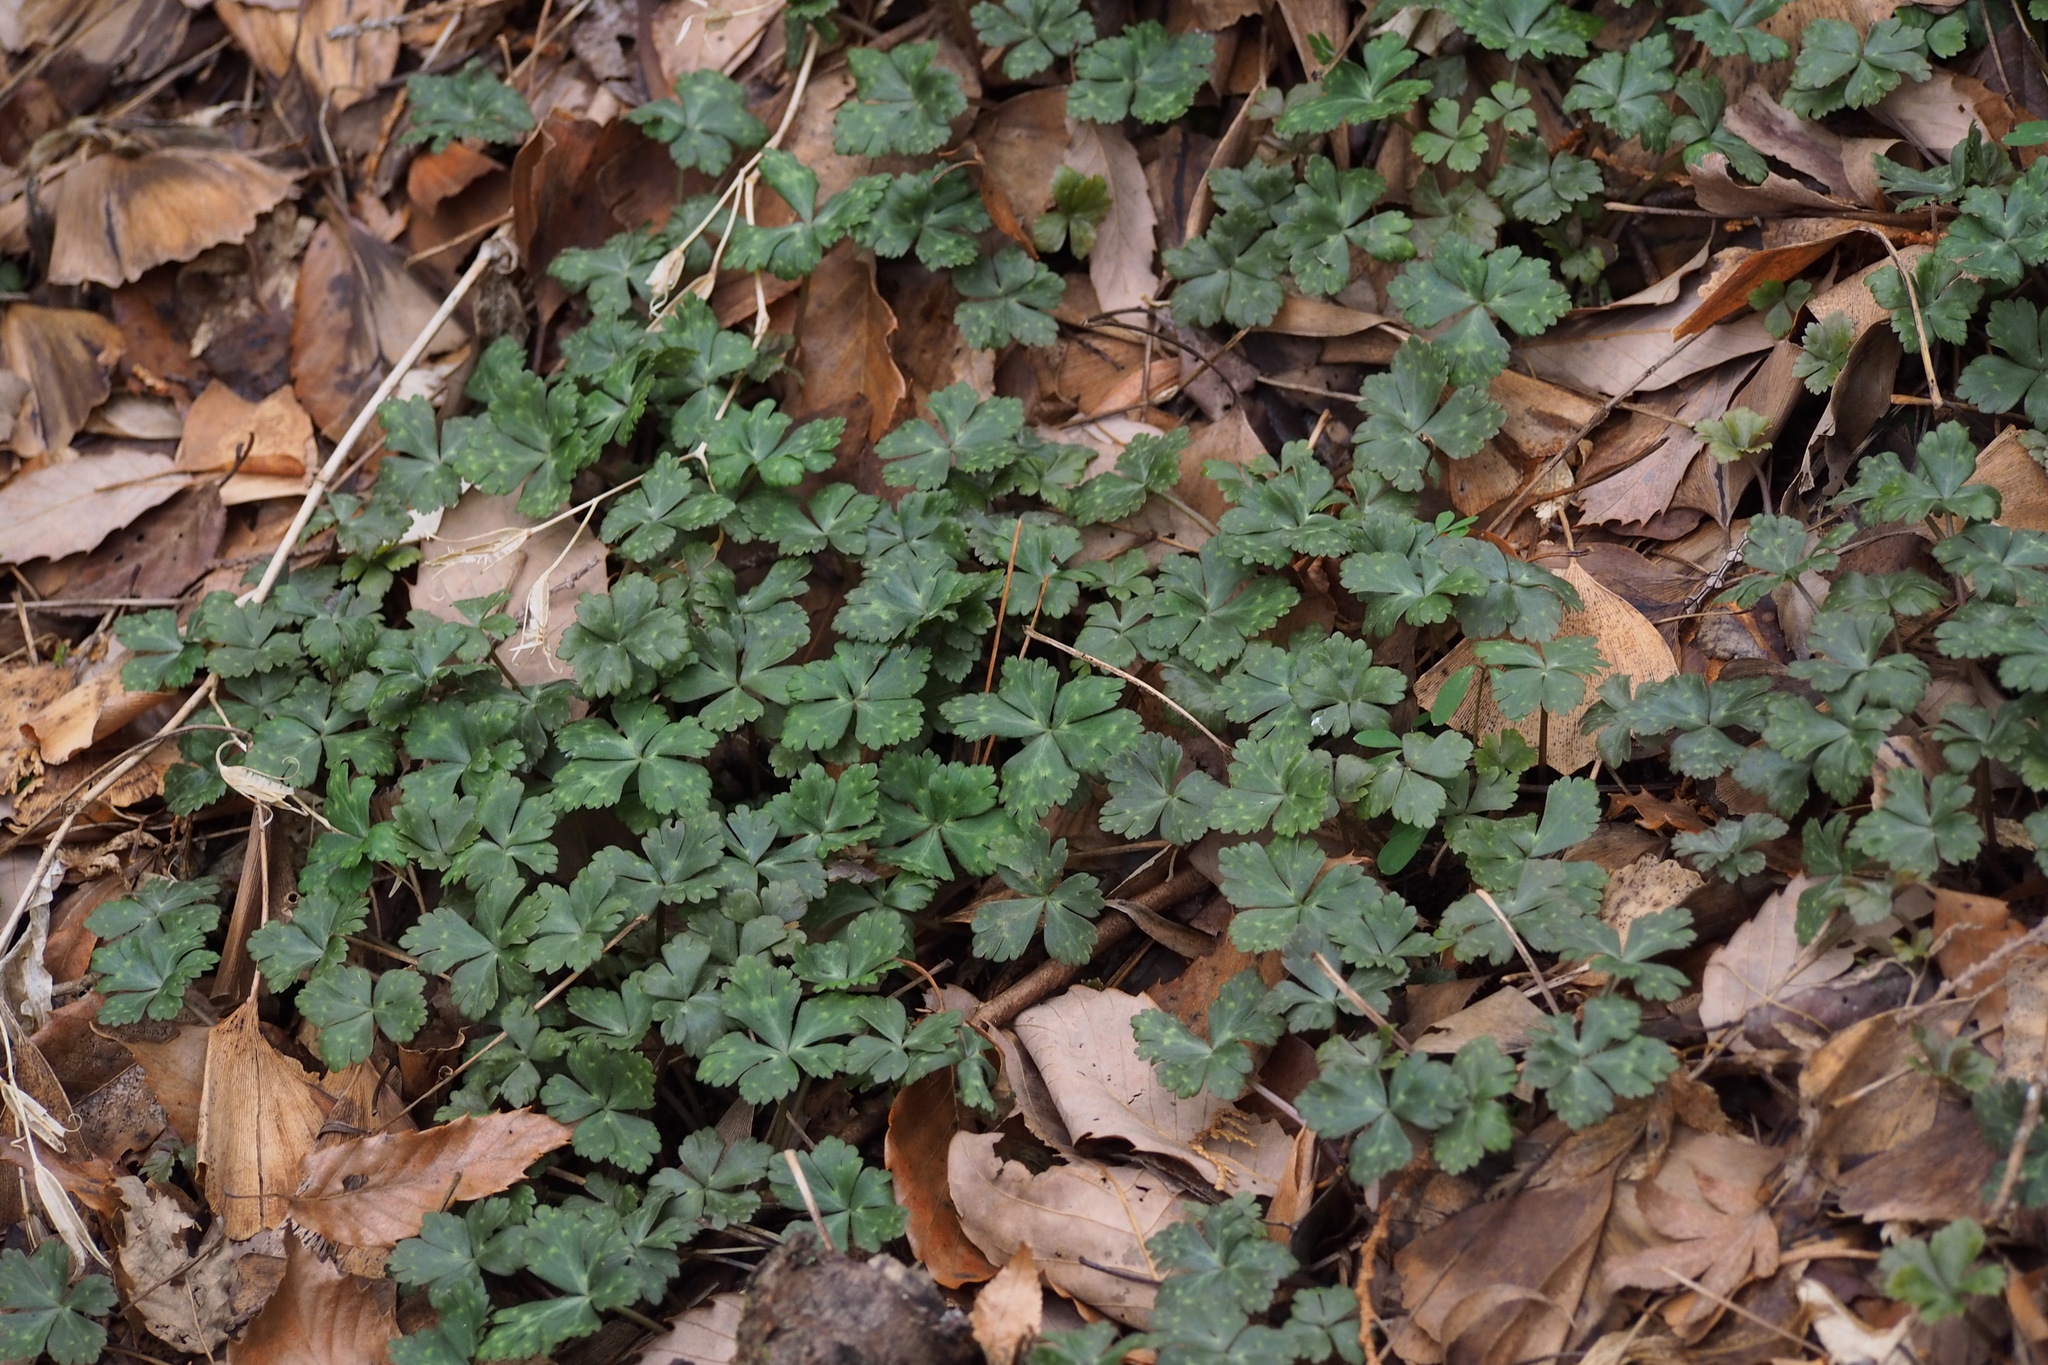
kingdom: Plantae
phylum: Tracheophyta
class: Magnoliopsida
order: Ranunculales
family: Ranunculaceae
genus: Anemonastrum
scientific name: Anemonastrum flaccidum
